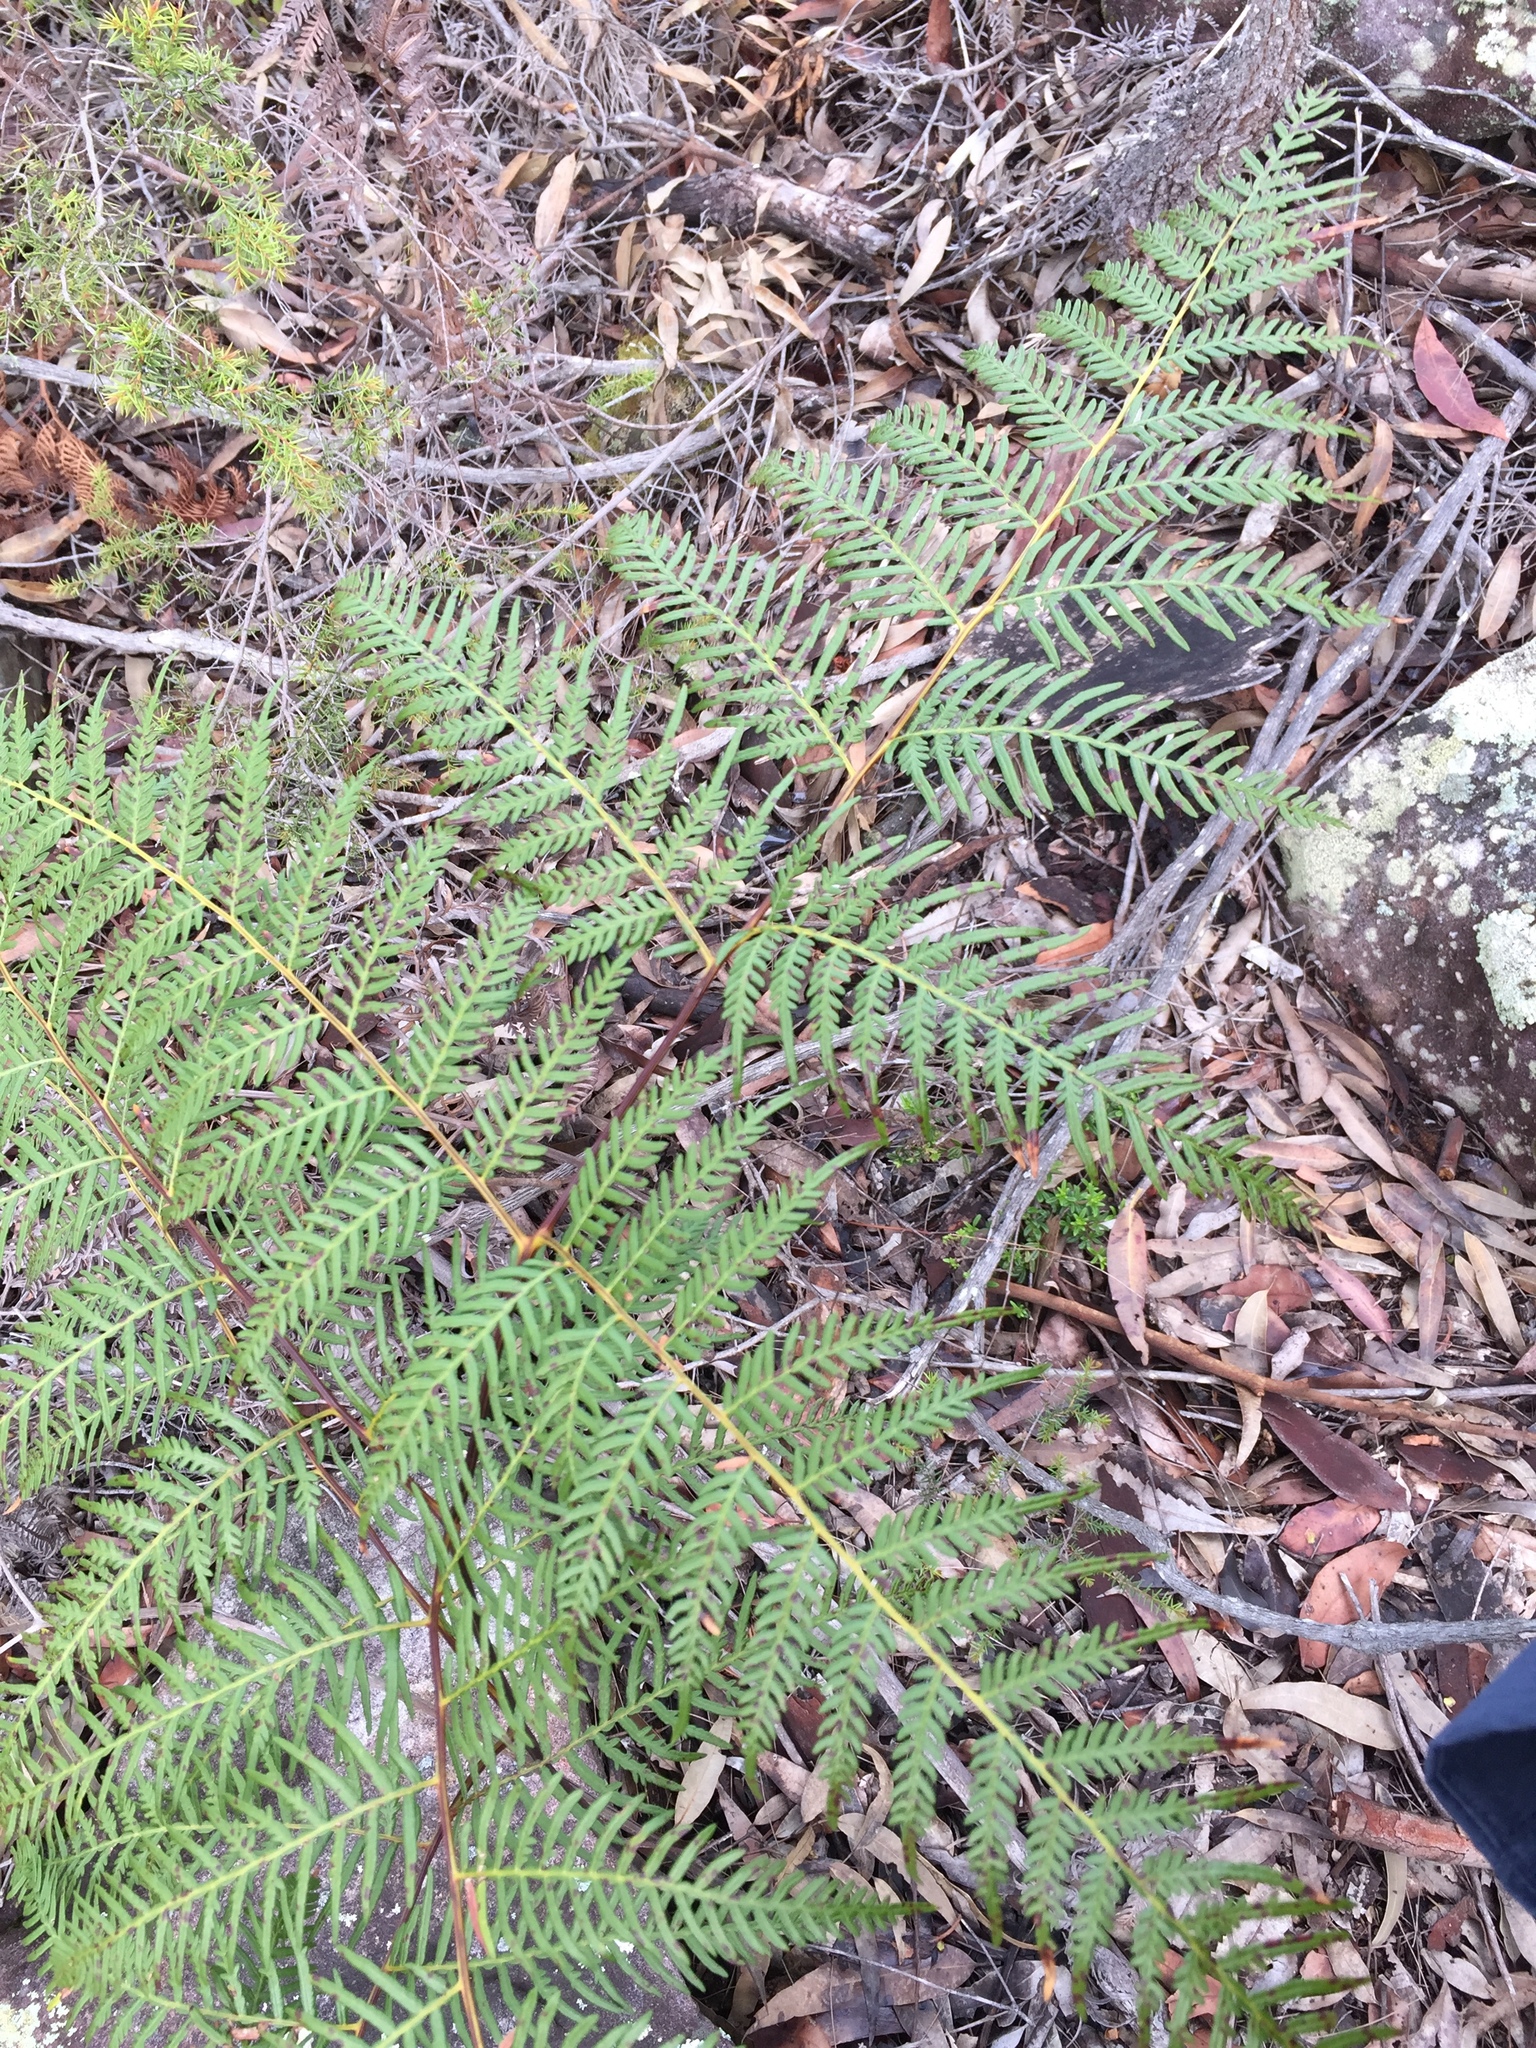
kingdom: Plantae
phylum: Tracheophyta
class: Polypodiopsida
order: Polypodiales
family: Dennstaedtiaceae
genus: Pteridium
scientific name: Pteridium esculentum
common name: Bracken fern
